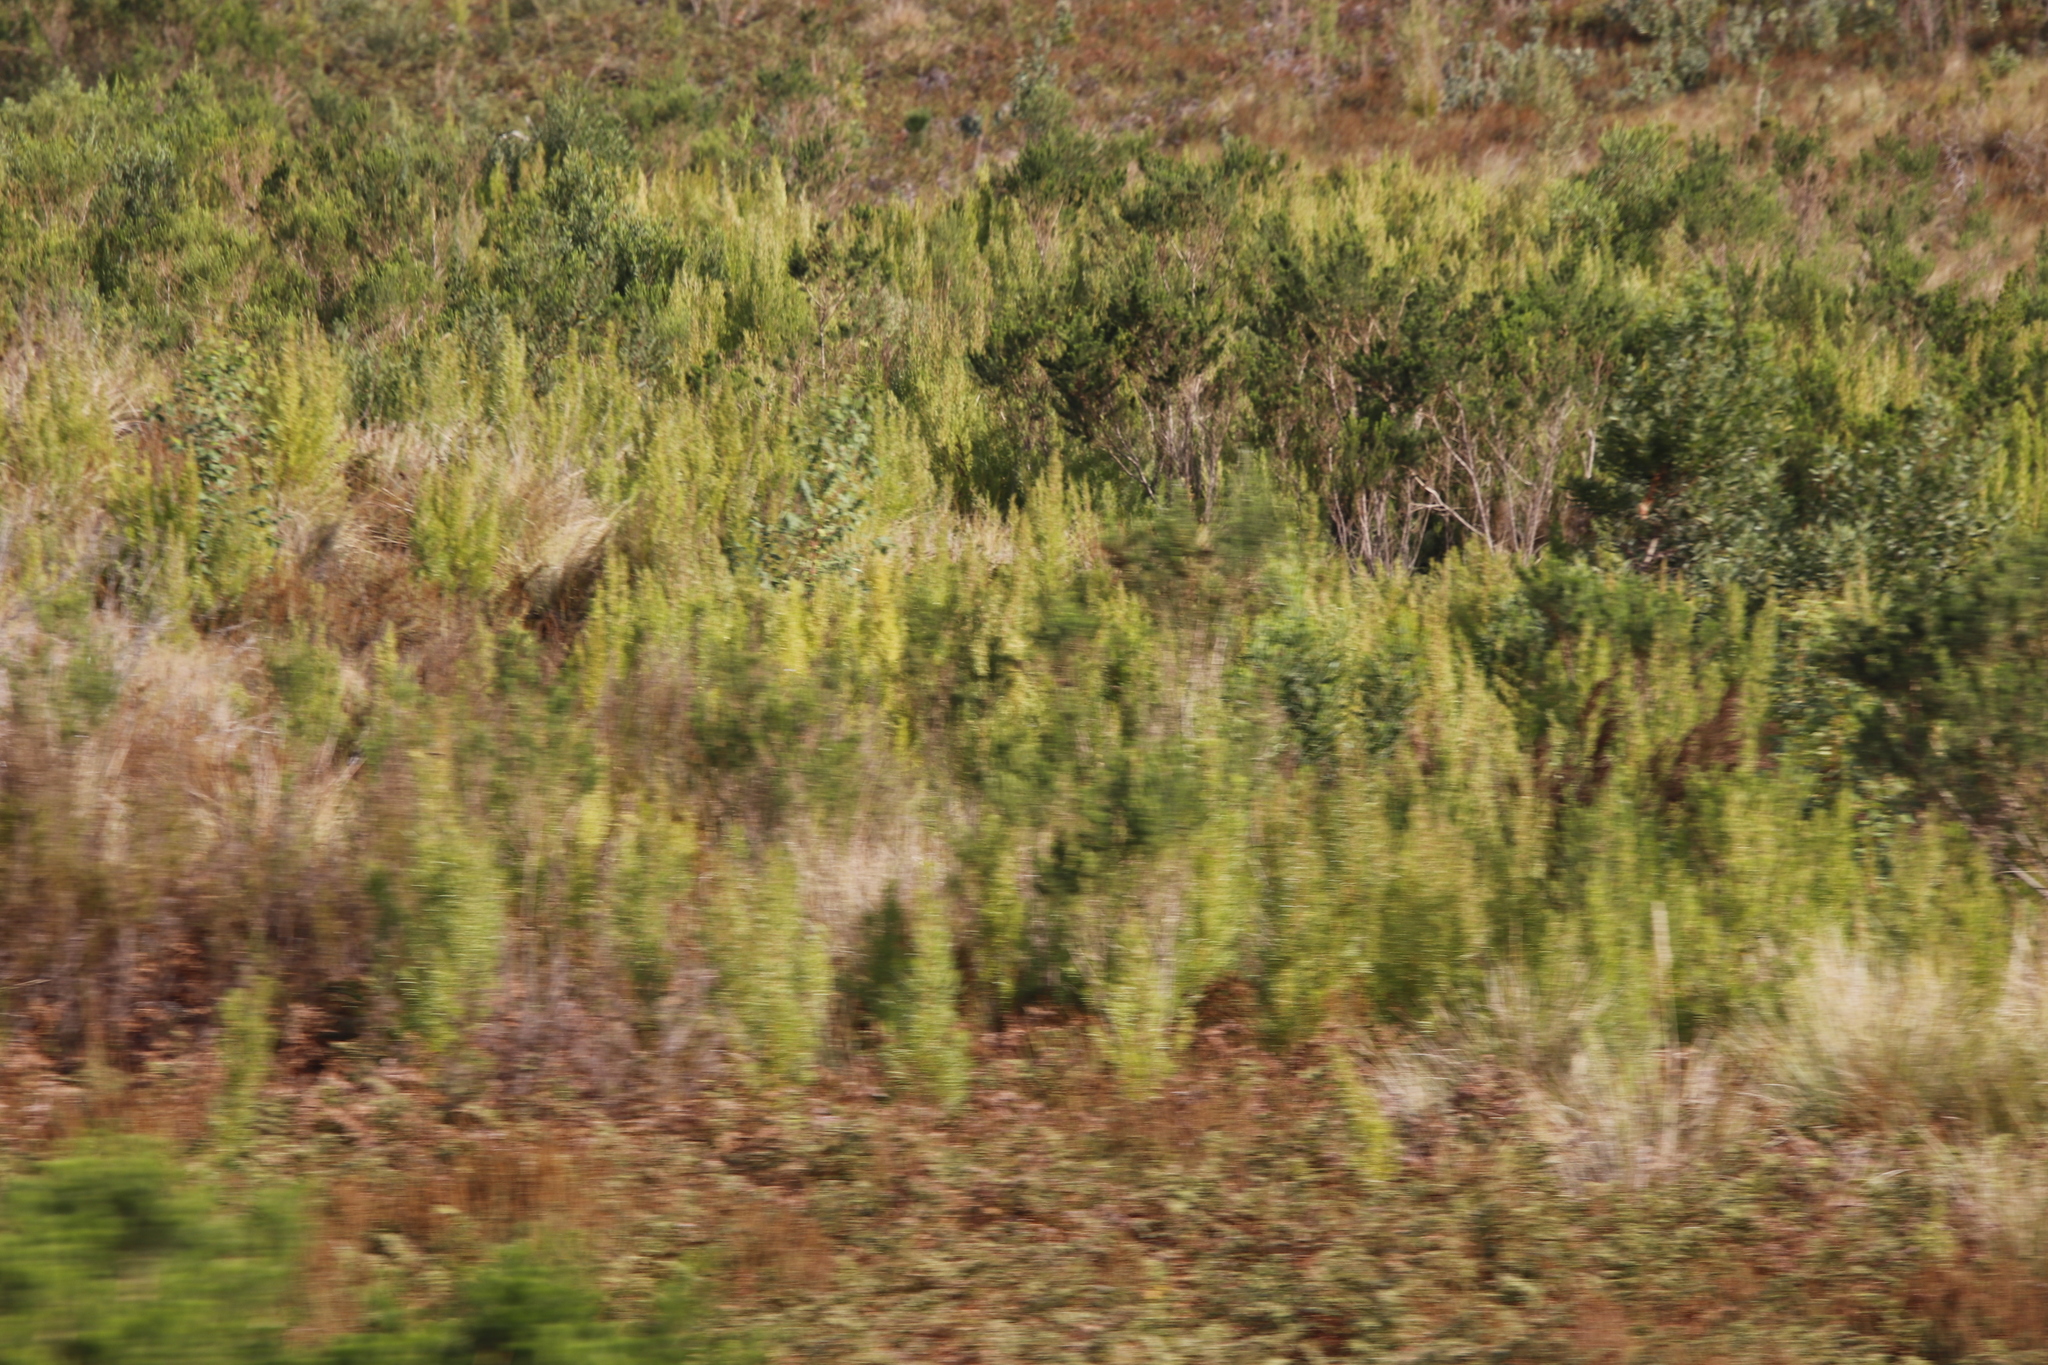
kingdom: Plantae
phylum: Tracheophyta
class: Magnoliopsida
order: Proteales
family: Proteaceae
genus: Leucadendron
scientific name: Leucadendron salicifolium
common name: Common stream conebush
